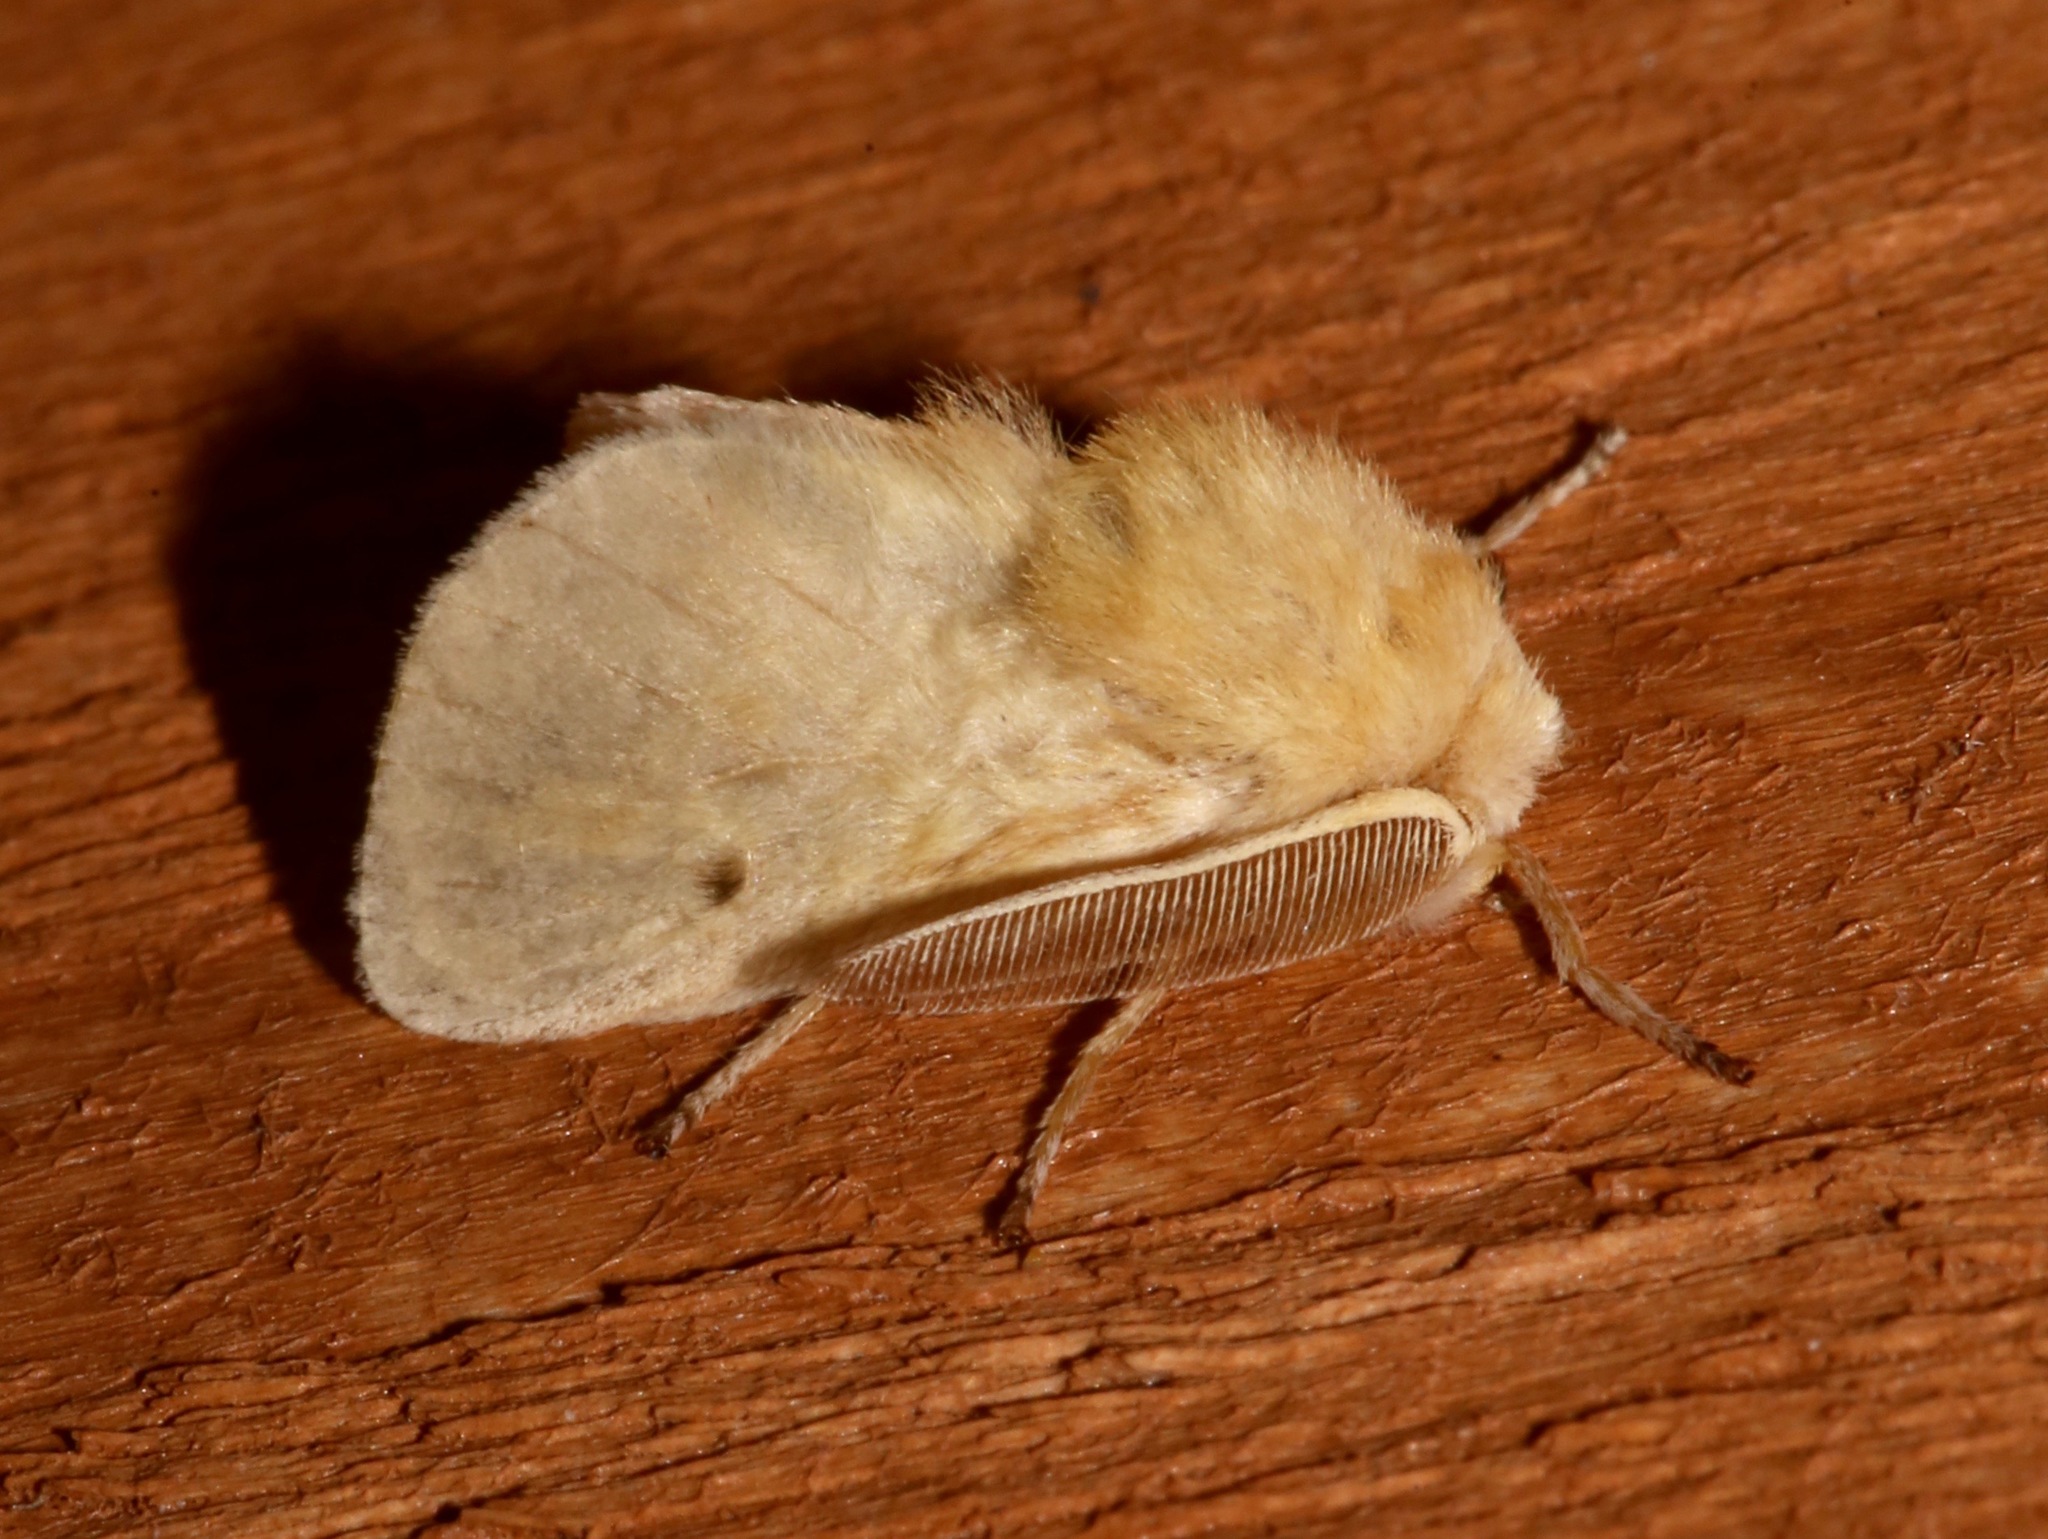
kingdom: Animalia
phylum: Arthropoda
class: Insecta
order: Lepidoptera
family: Megalopygidae
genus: Megalopyge
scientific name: Megalopyge lacyi
